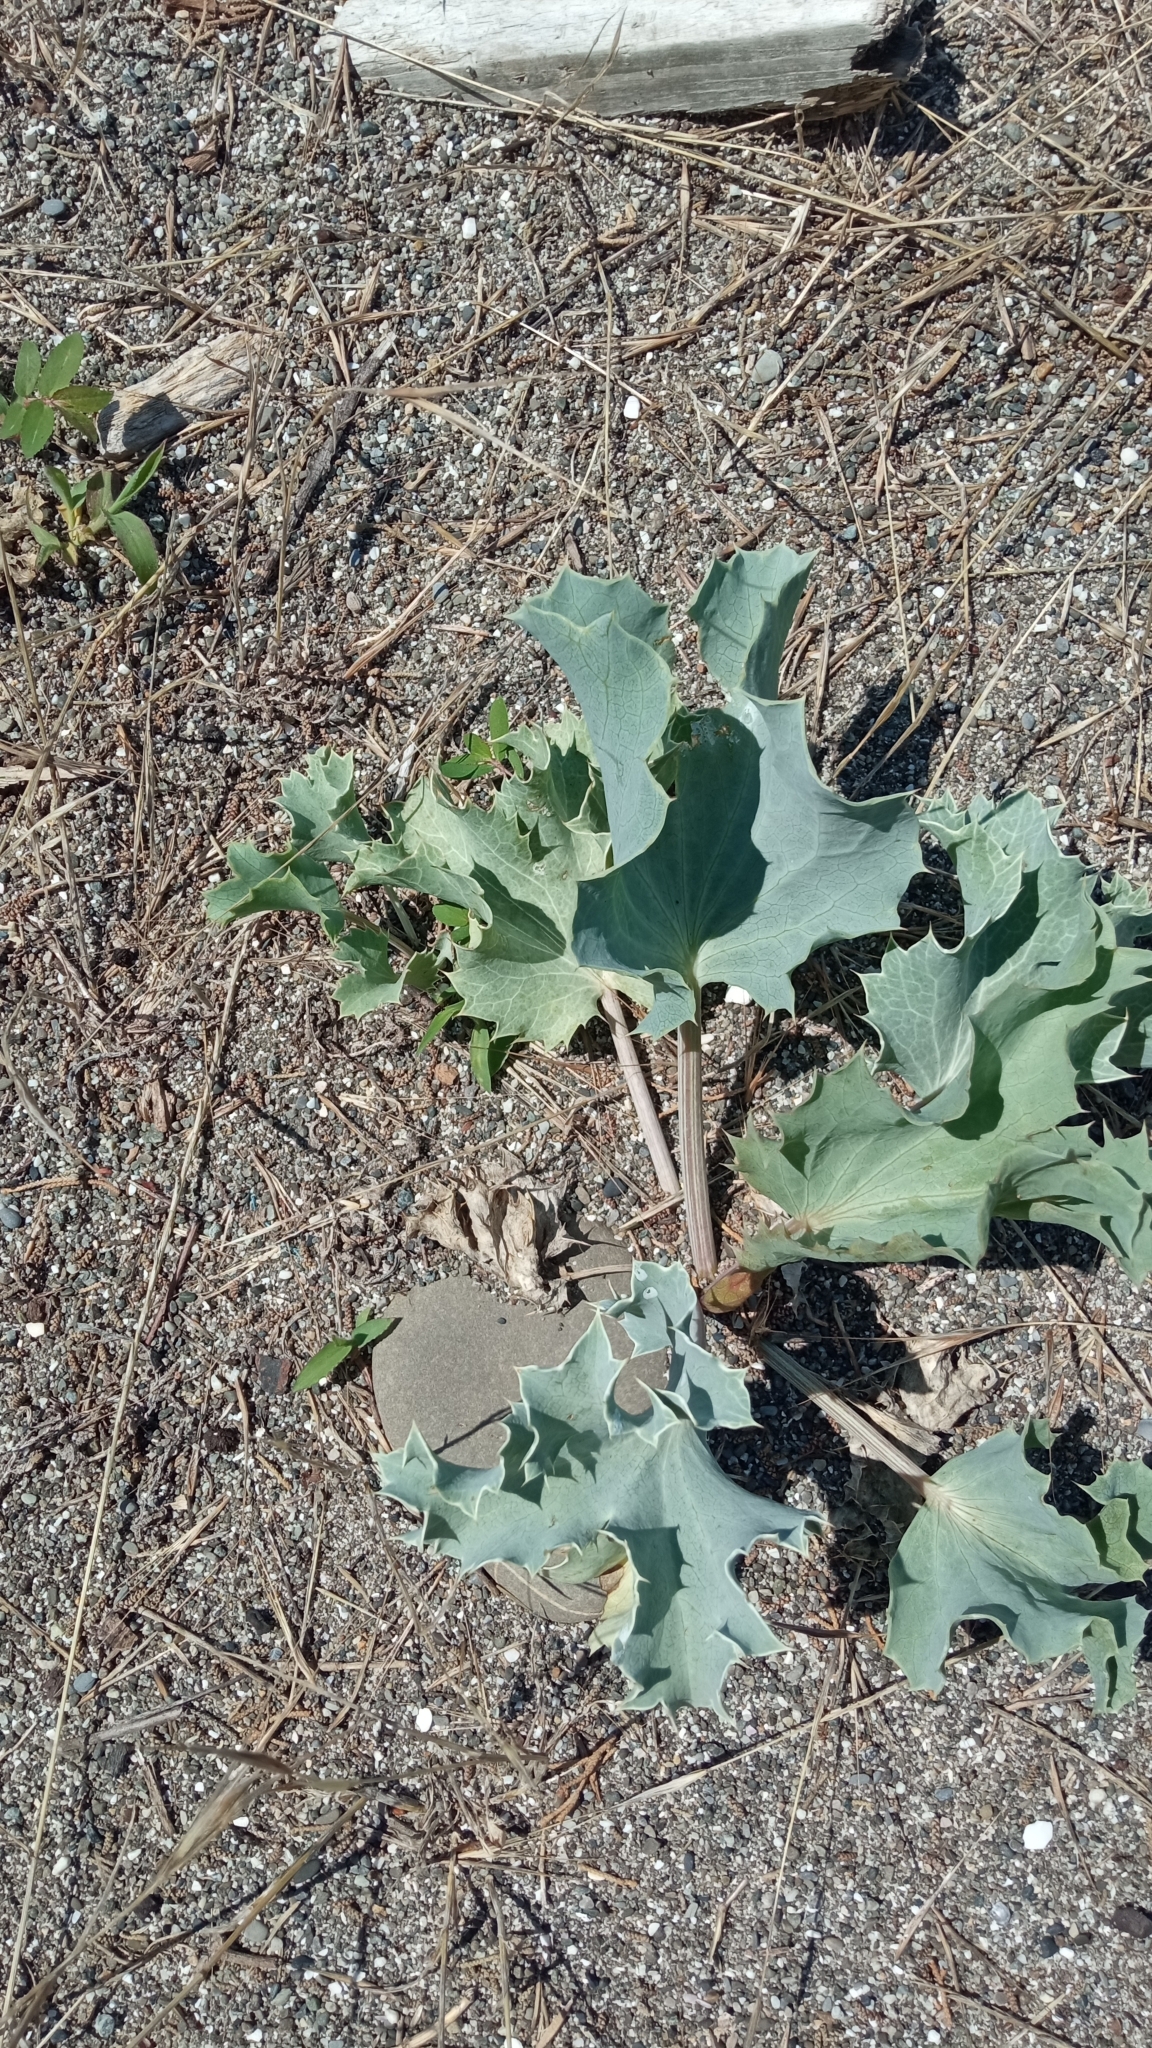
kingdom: Plantae
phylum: Tracheophyta
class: Magnoliopsida
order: Apiales
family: Apiaceae
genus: Eryngium
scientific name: Eryngium maritimum
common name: Sea-holly
